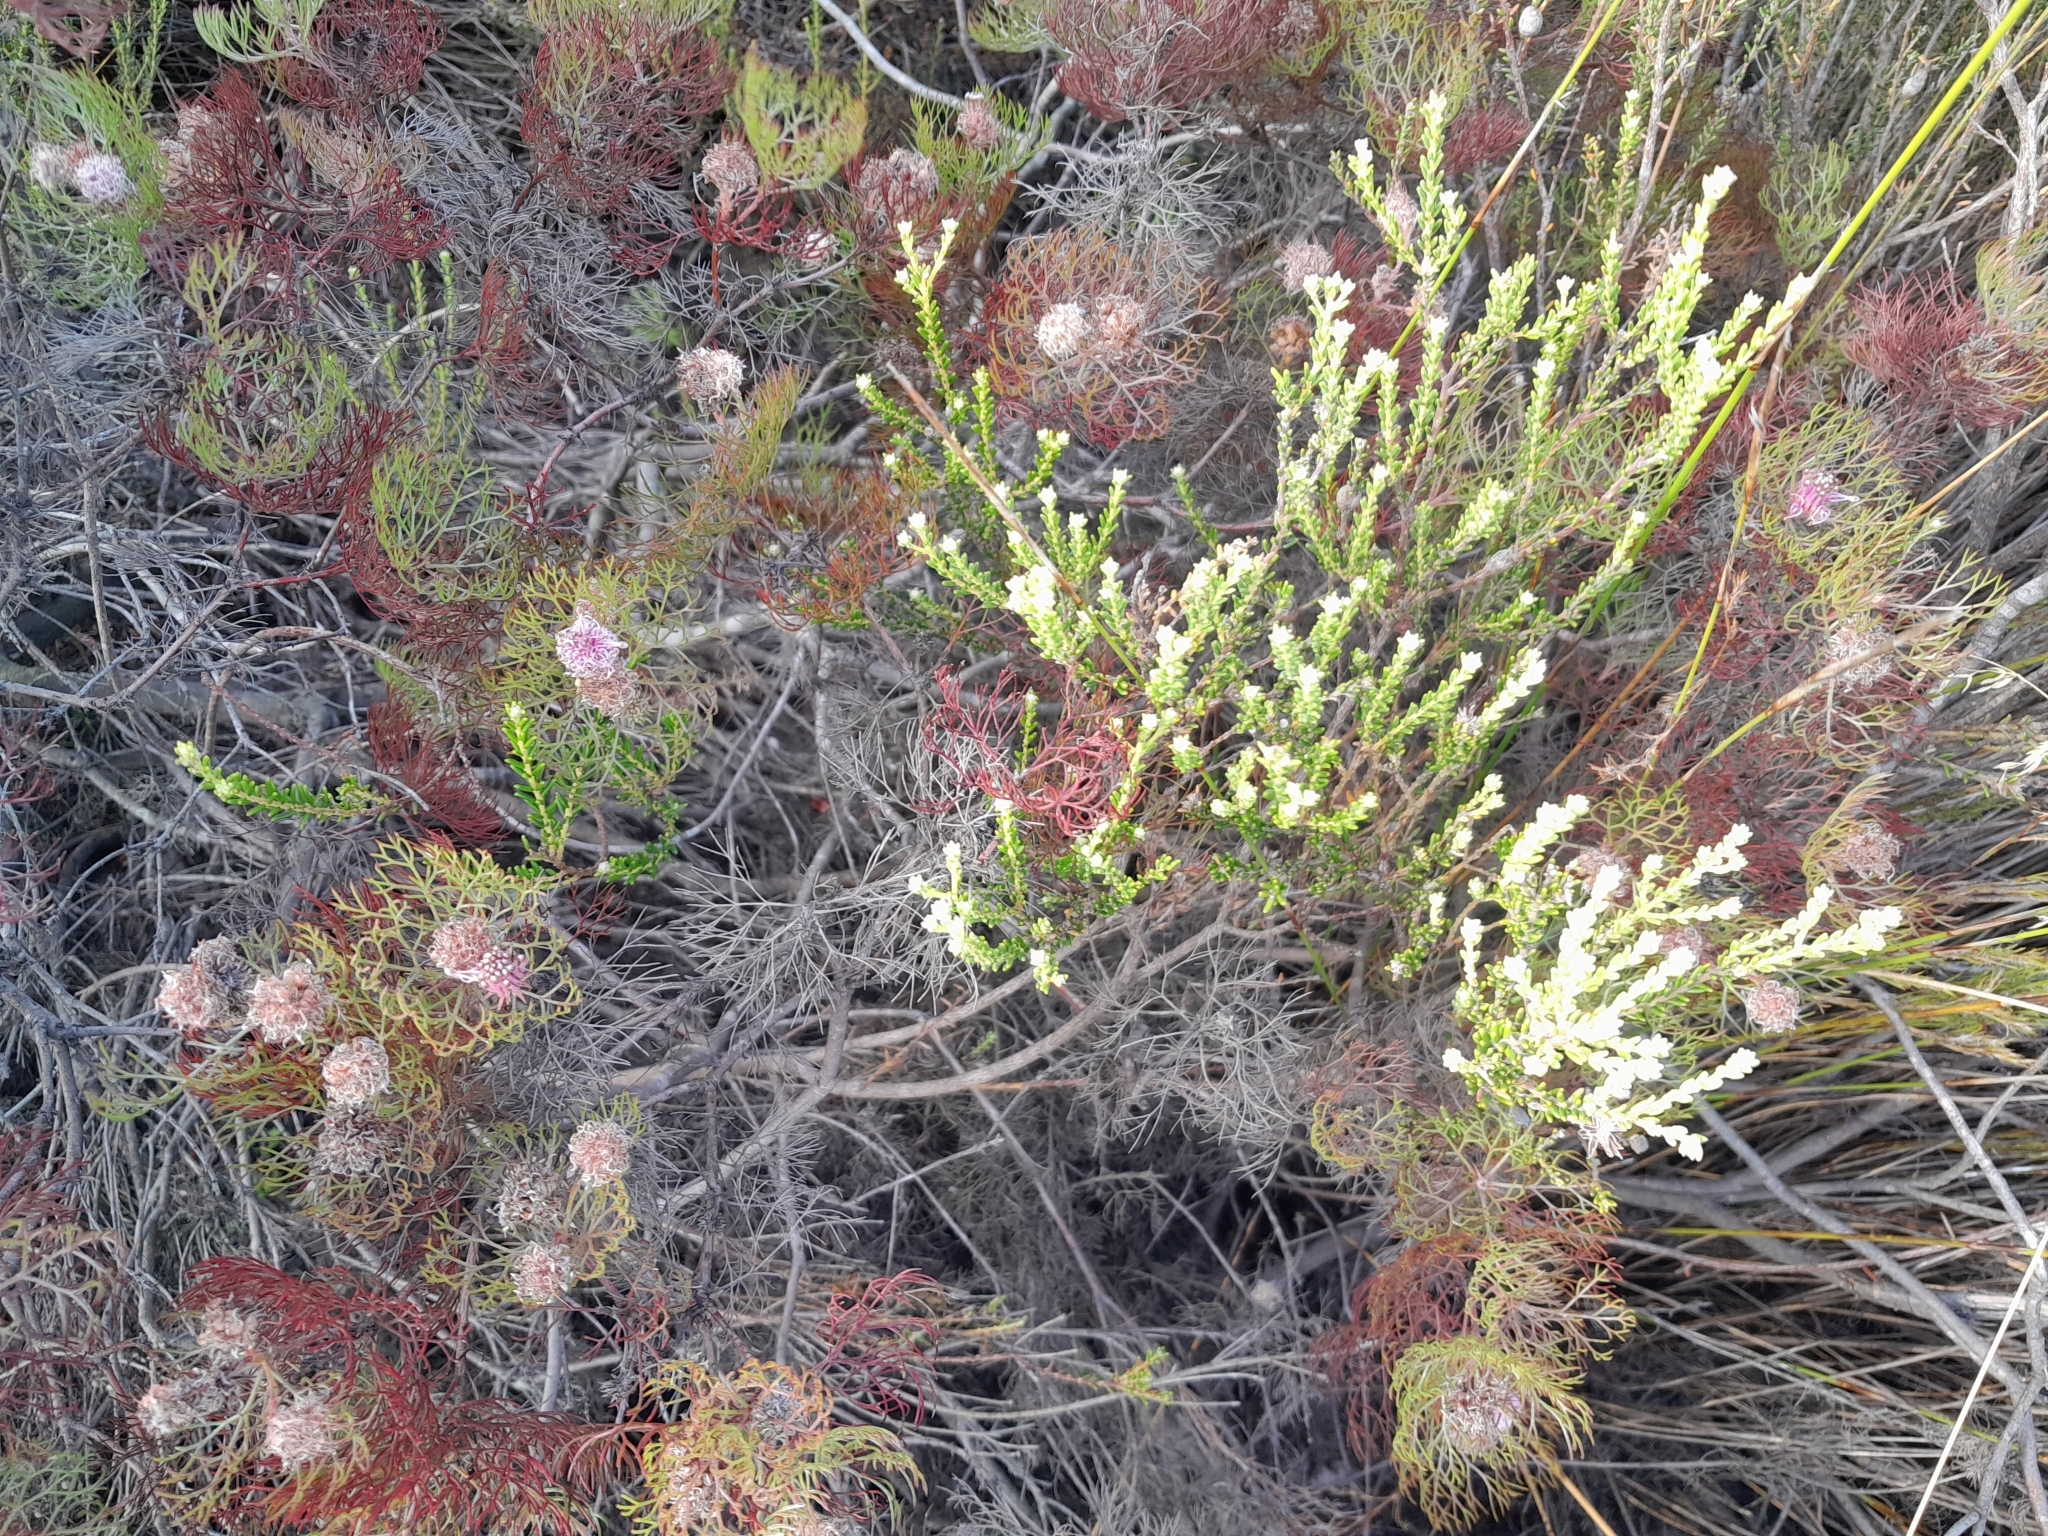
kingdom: Plantae
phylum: Tracheophyta
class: Magnoliopsida
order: Proteales
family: Proteaceae
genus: Serruria
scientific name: Serruria fasciflora
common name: Common pin spiderhead
